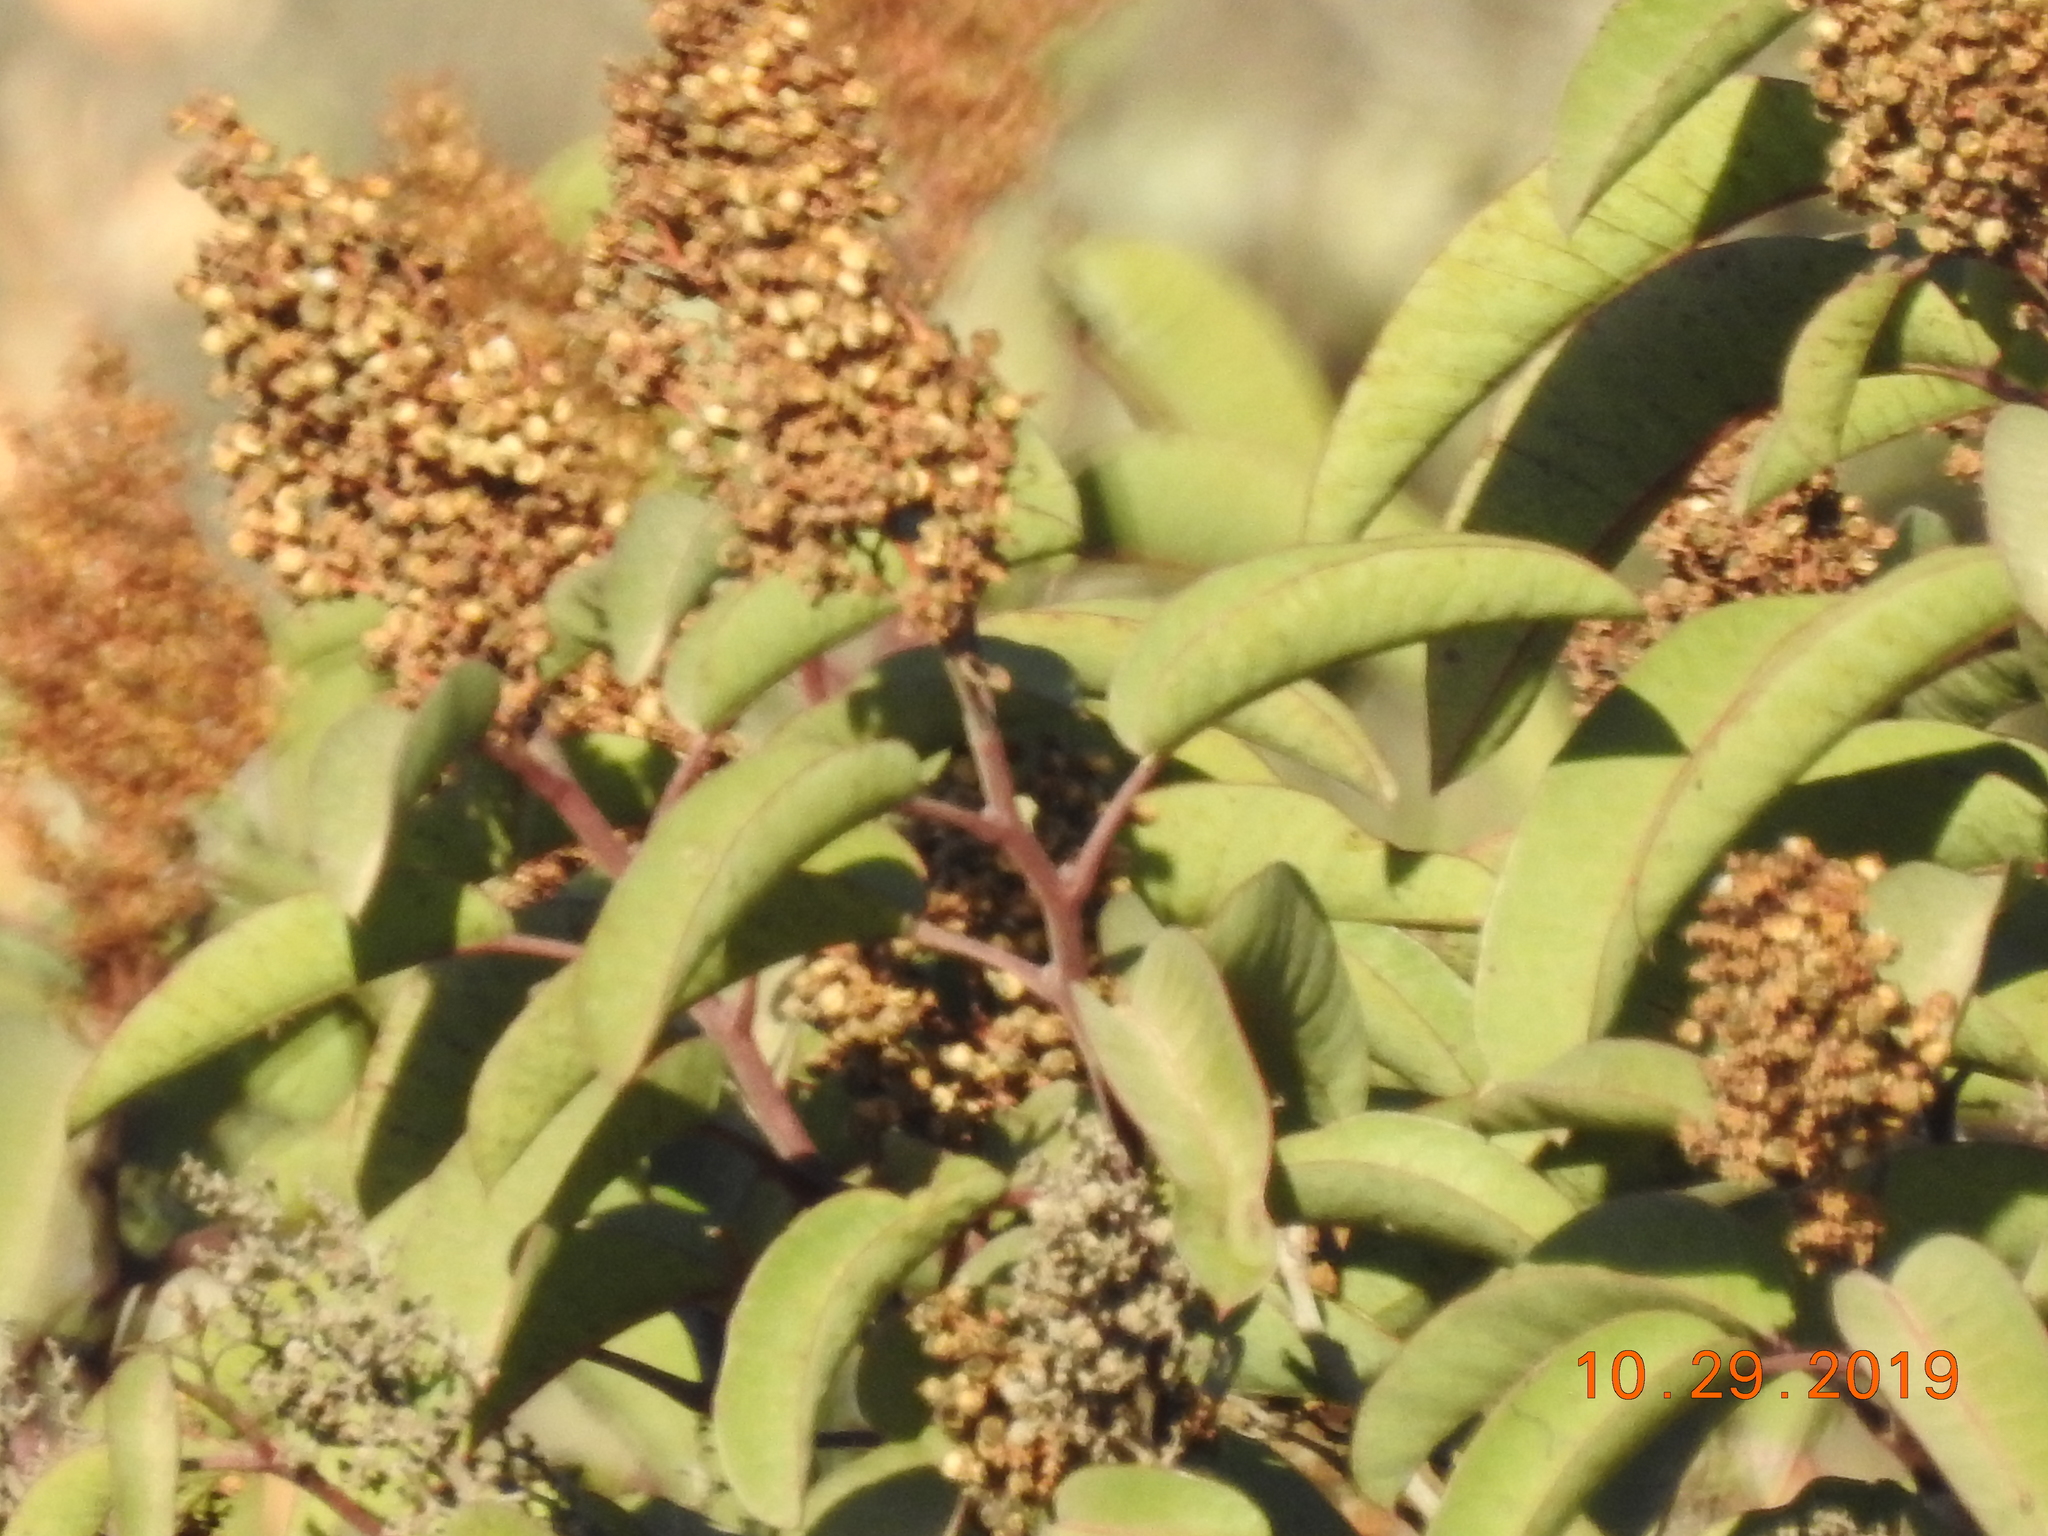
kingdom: Plantae
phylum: Tracheophyta
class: Magnoliopsida
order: Sapindales
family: Anacardiaceae
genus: Malosma
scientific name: Malosma laurina
